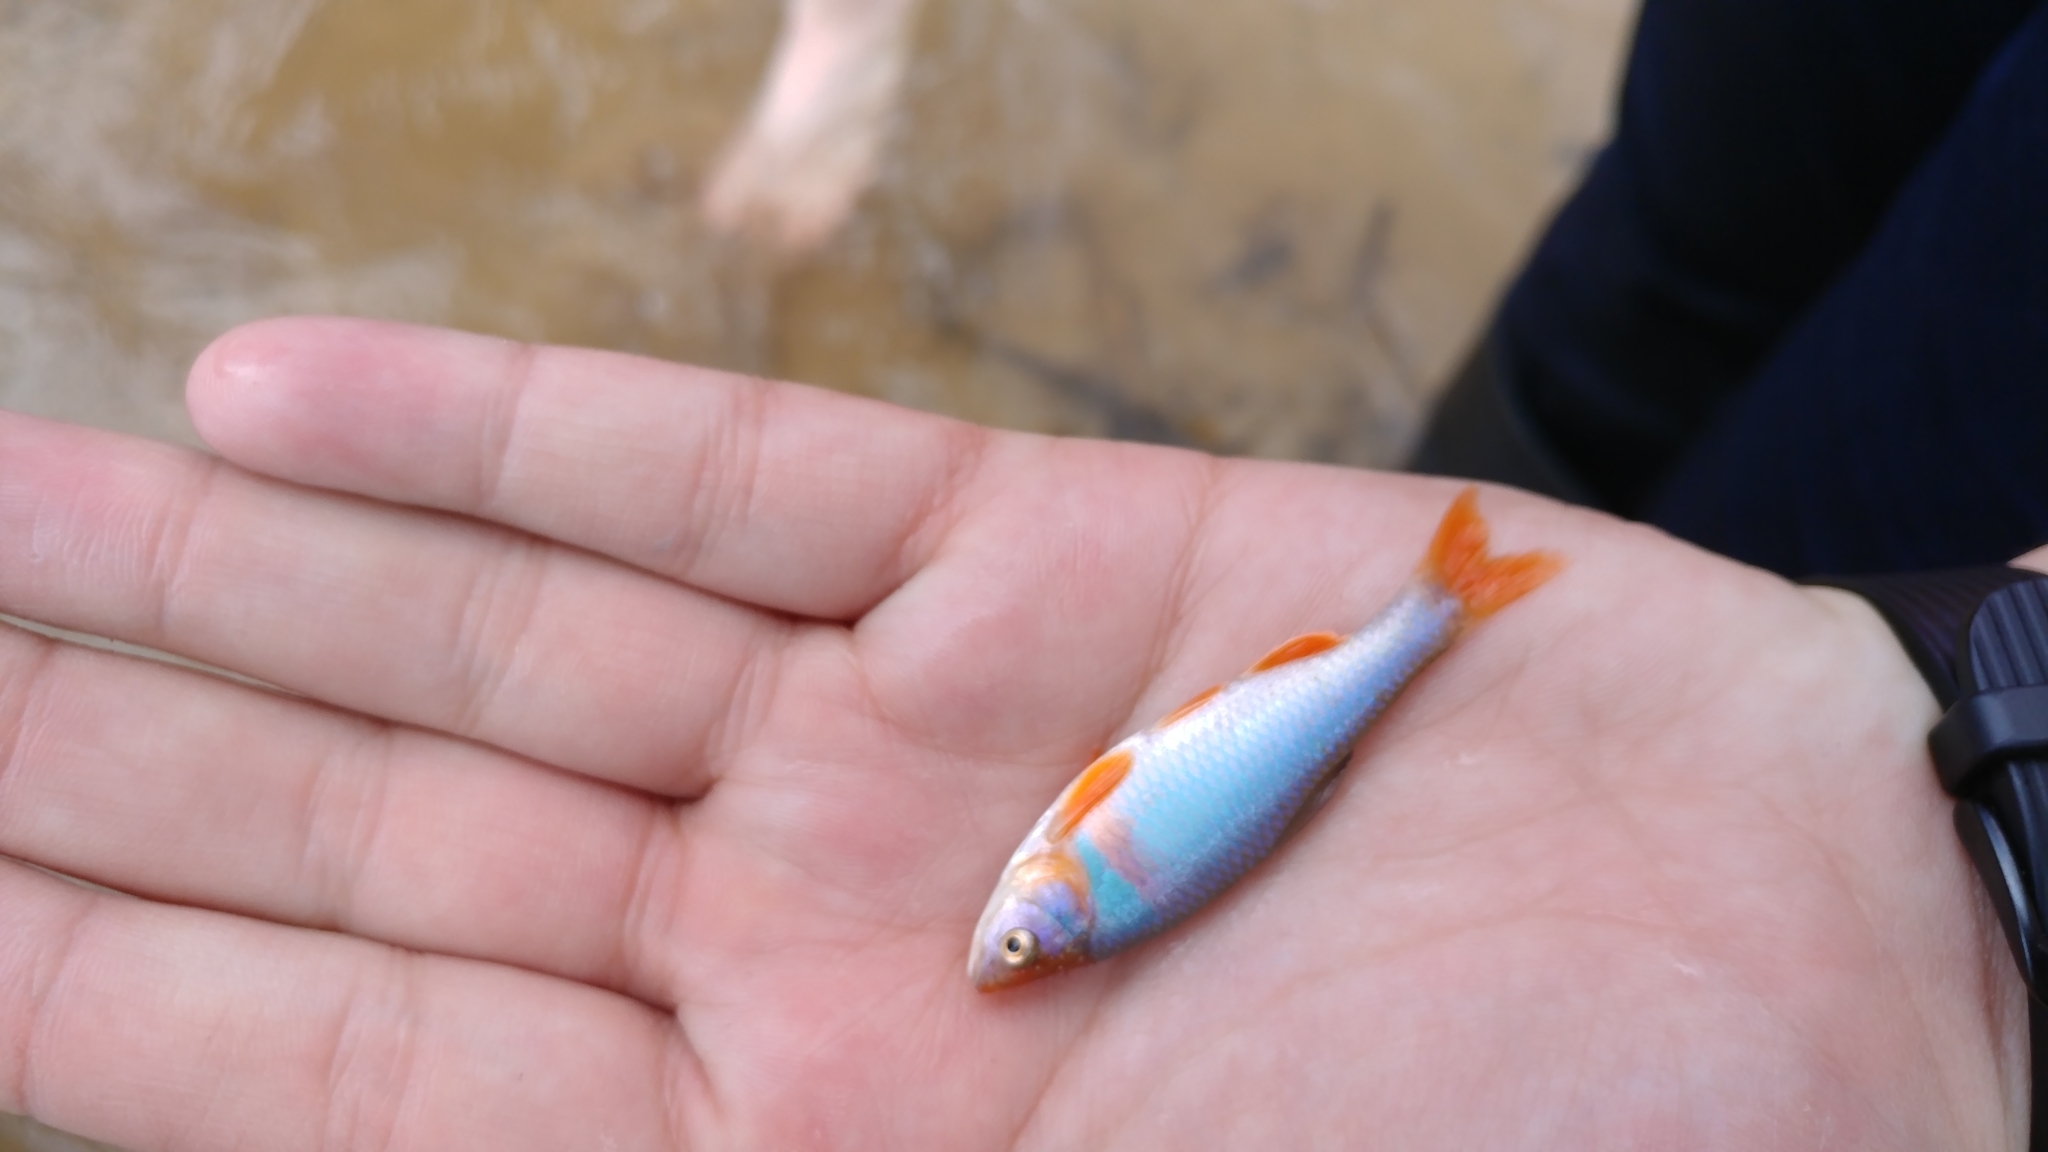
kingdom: Animalia
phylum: Chordata
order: Cypriniformes
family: Cyprinidae
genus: Cyprinella
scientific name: Cyprinella lutrensis
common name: Red shiner
